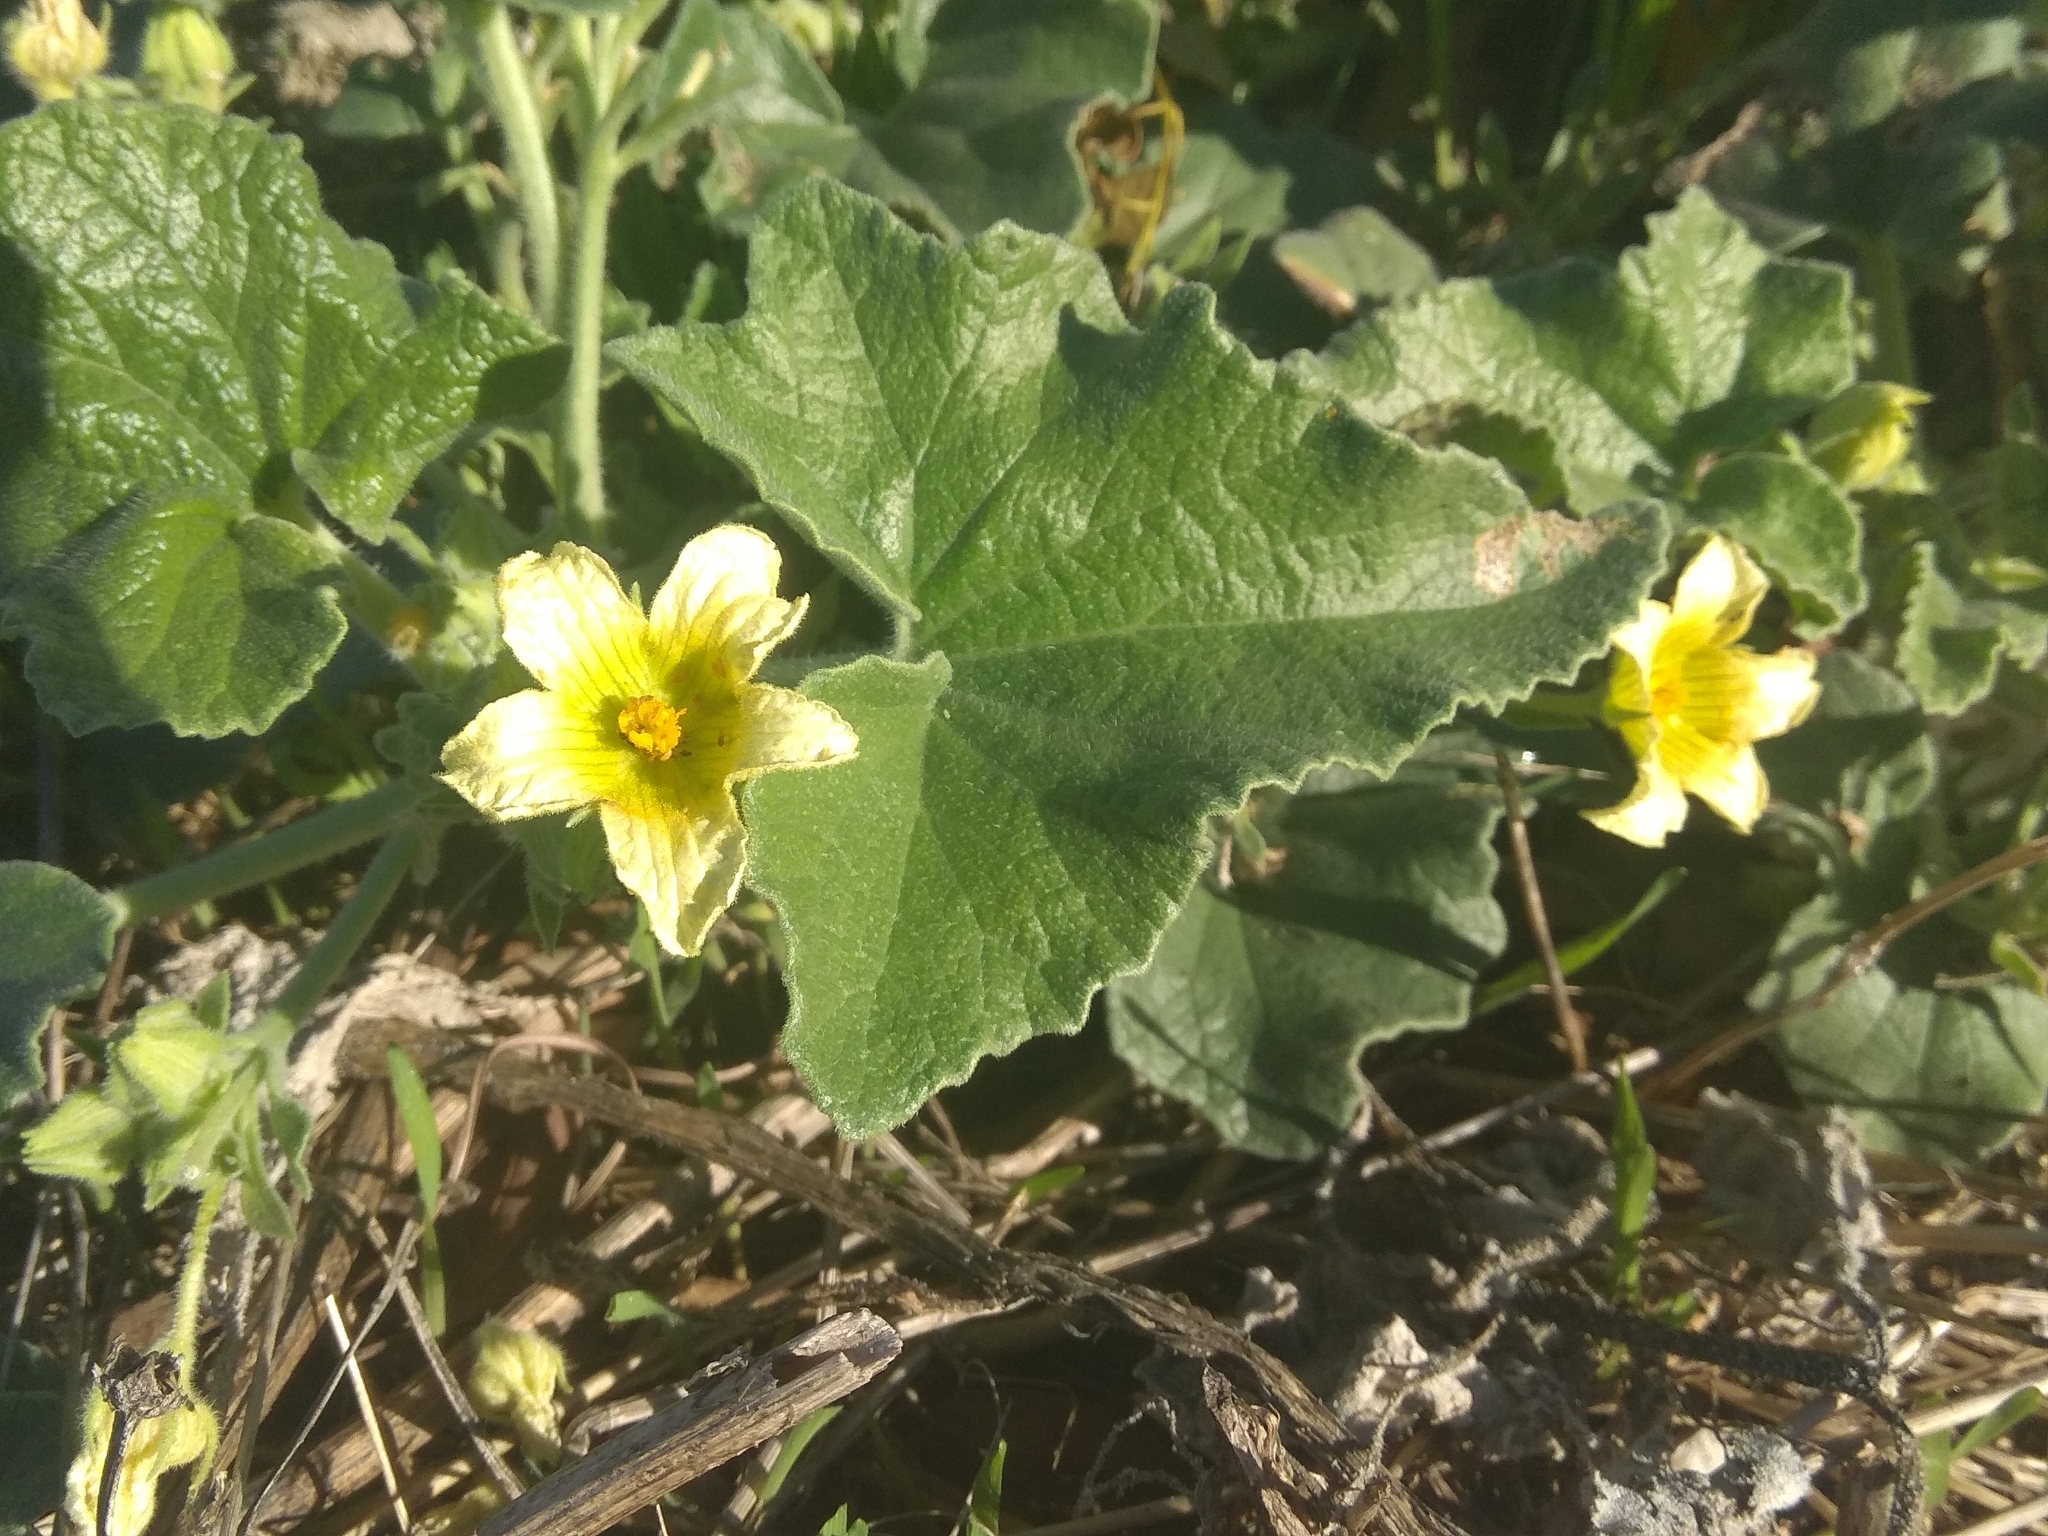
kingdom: Plantae
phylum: Tracheophyta
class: Magnoliopsida
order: Cucurbitales
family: Cucurbitaceae
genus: Ecballium
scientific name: Ecballium elaterium
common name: Squirting cucumber
